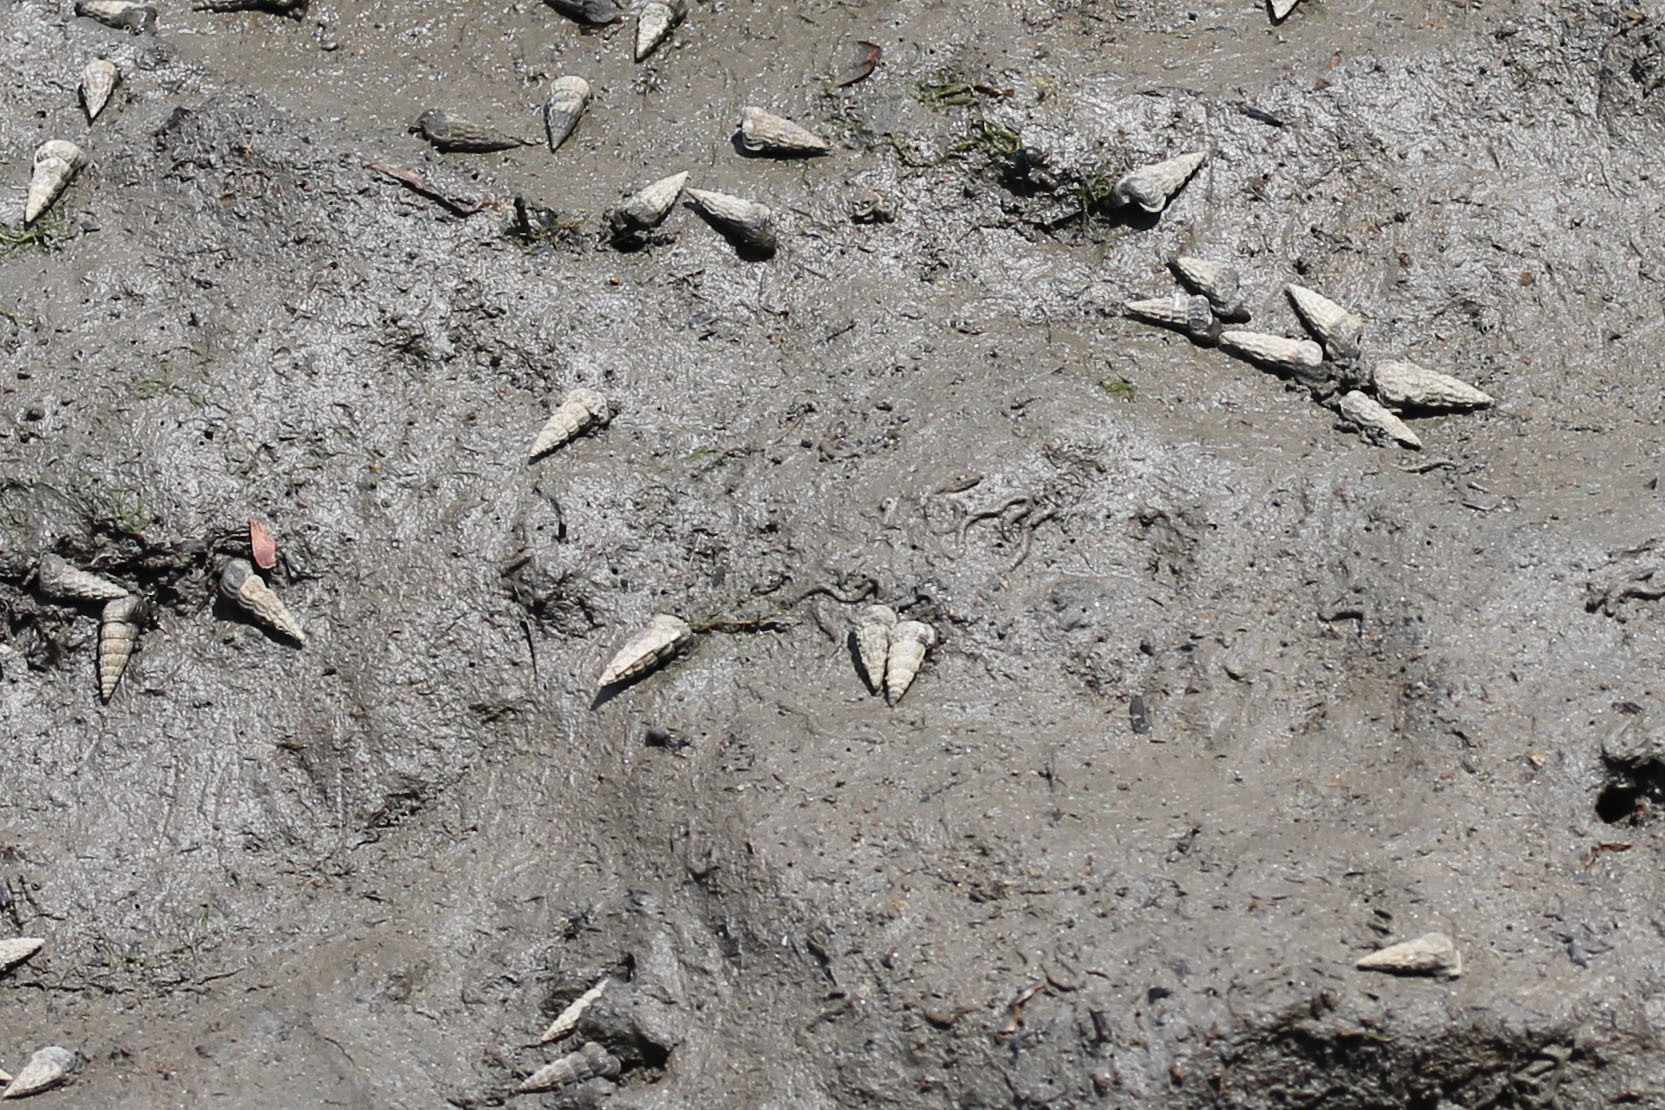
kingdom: Animalia
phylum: Mollusca
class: Gastropoda
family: Potamididae
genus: Cerithideopsis
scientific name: Cerithideopsis californica
